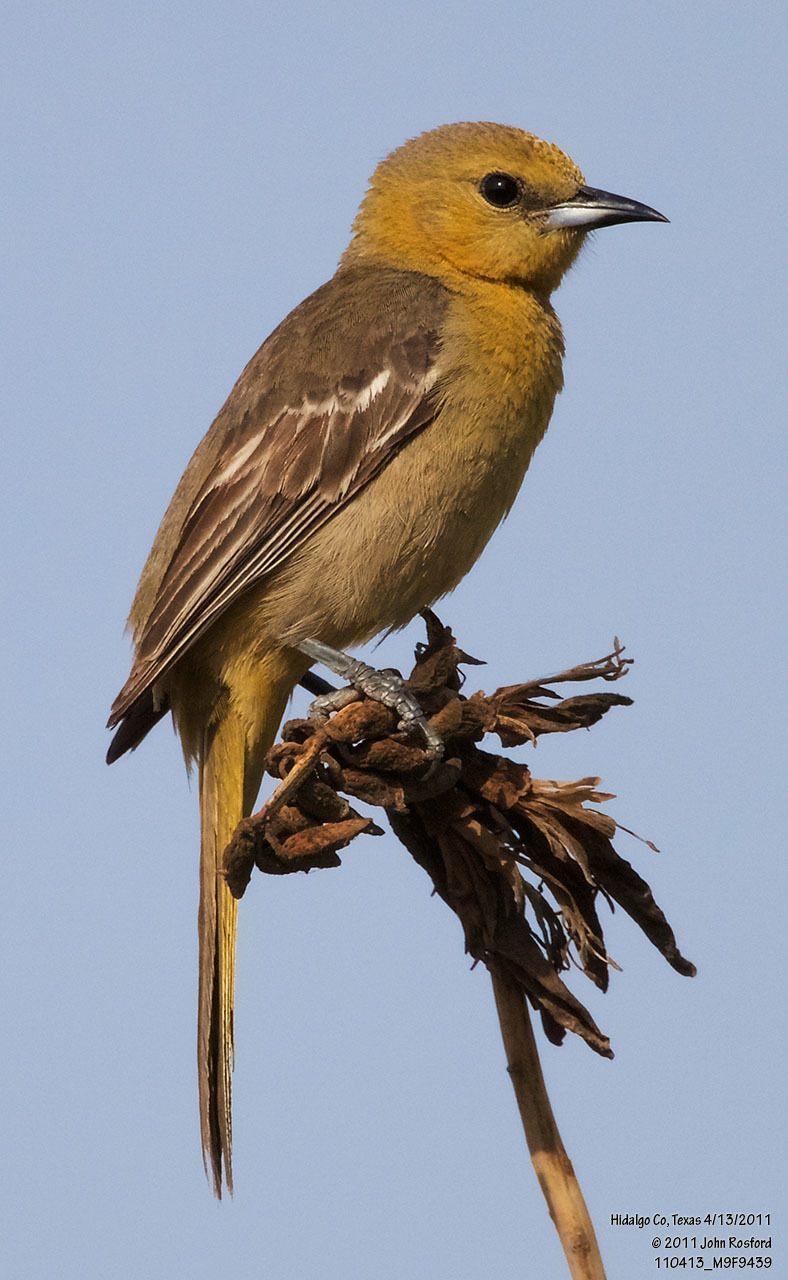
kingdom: Animalia
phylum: Chordata
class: Aves
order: Passeriformes
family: Icteridae
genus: Icterus
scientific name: Icterus cucullatus
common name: Hooded oriole
